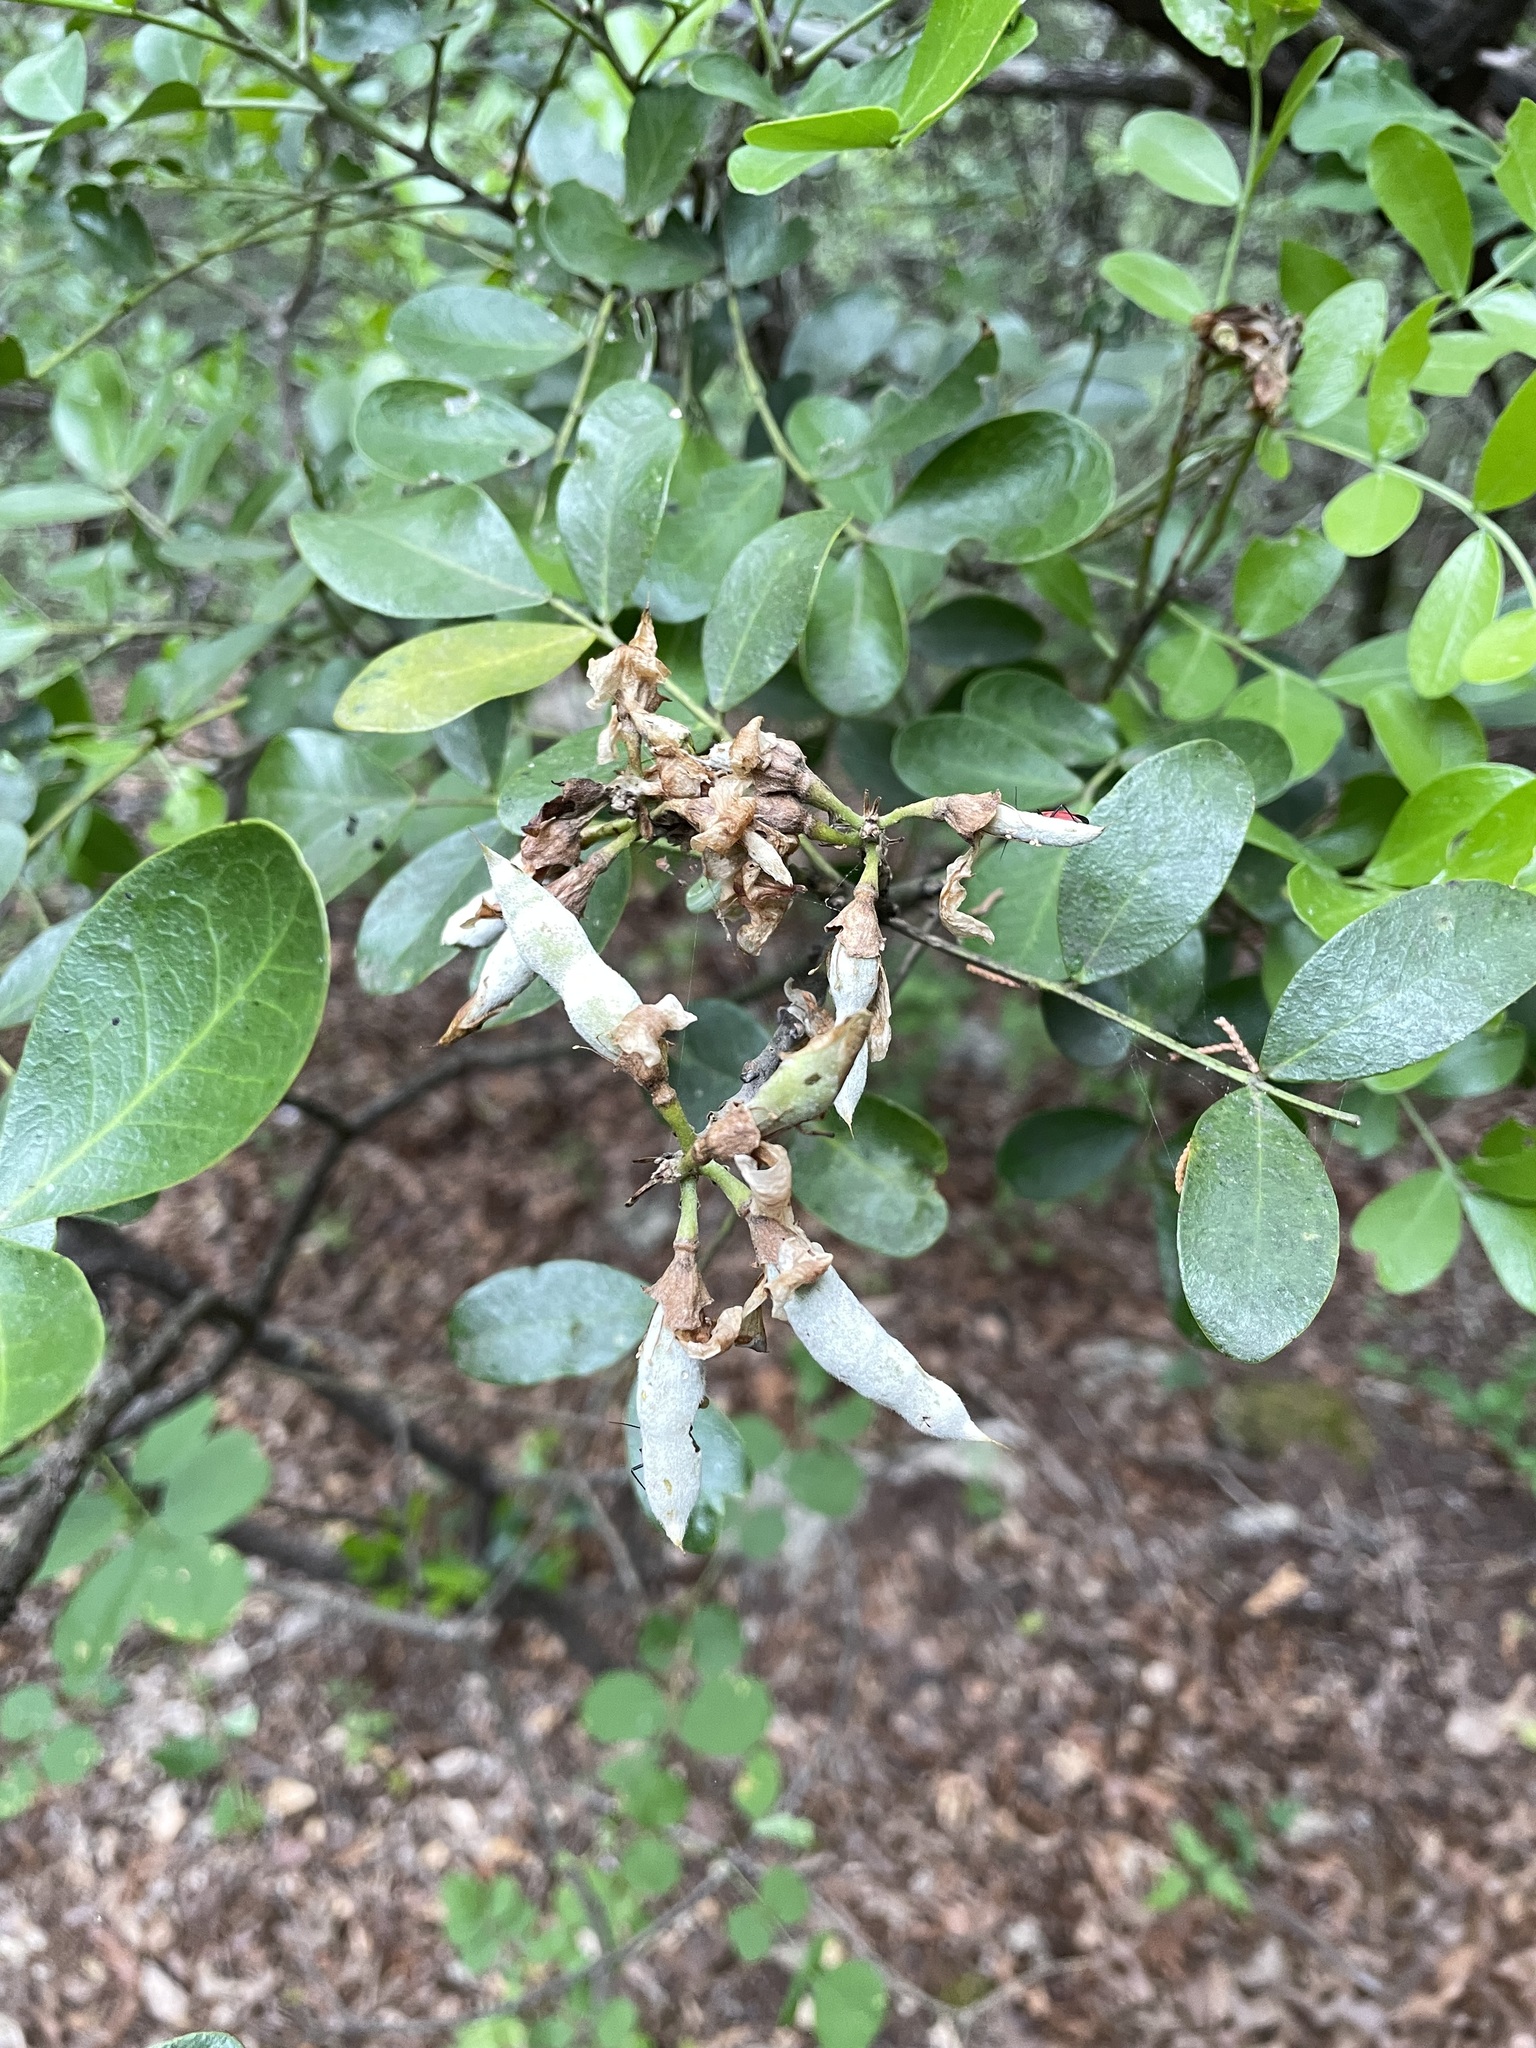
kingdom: Plantae
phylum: Tracheophyta
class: Magnoliopsida
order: Fabales
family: Fabaceae
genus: Dermatophyllum
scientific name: Dermatophyllum secundiflorum
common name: Texas-mountain-laurel
